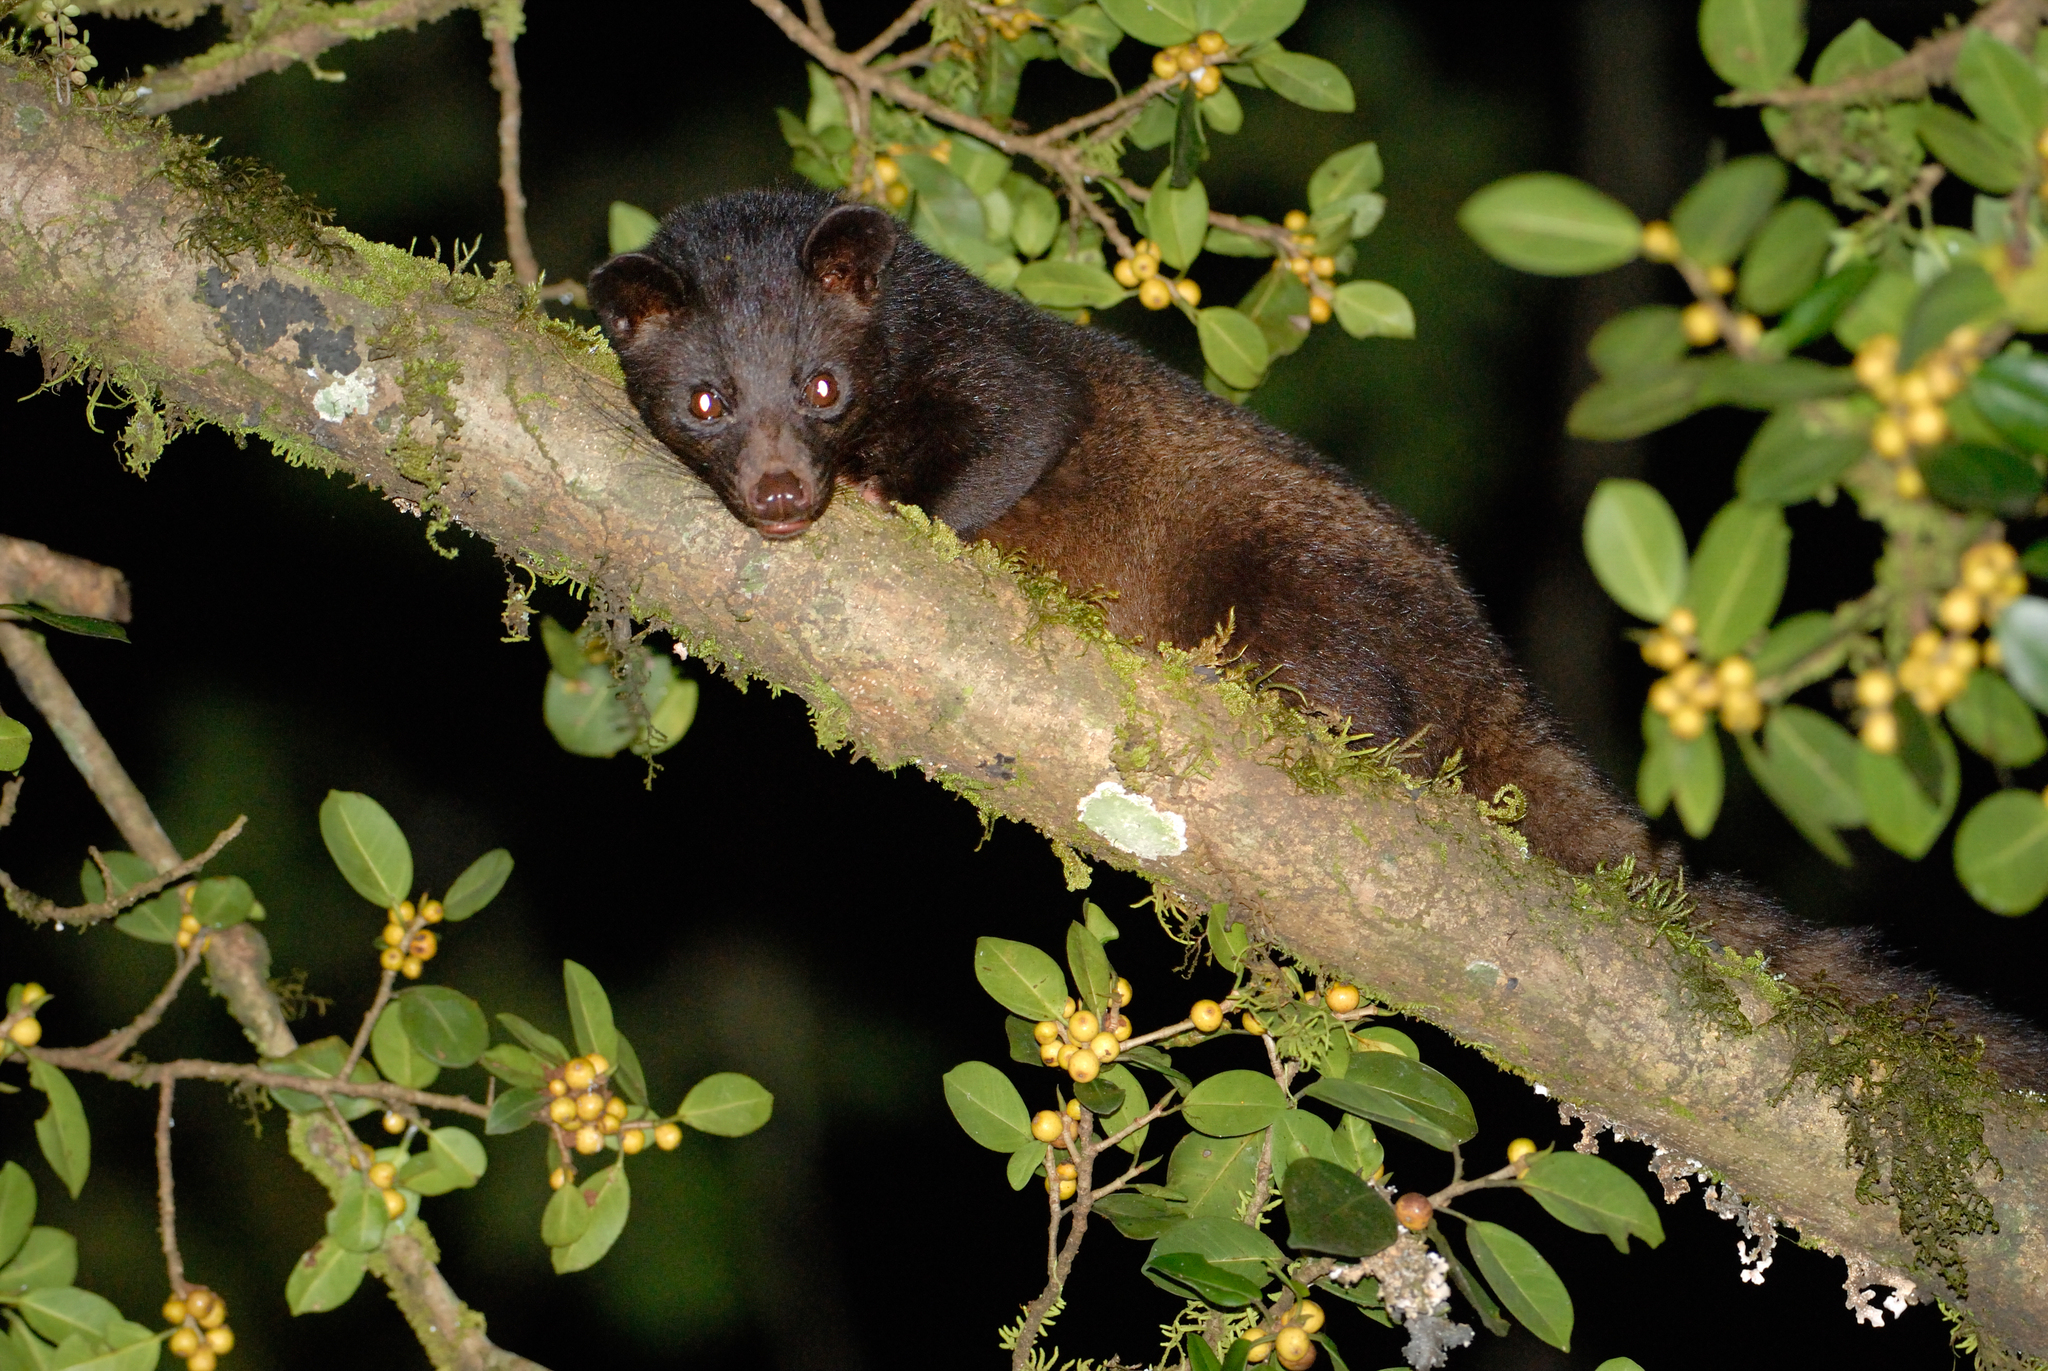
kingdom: Animalia
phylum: Chordata
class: Mammalia
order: Carnivora
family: Viverridae
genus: Paradoxurus
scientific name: Paradoxurus jerdoni
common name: Jerdon's palm civet
